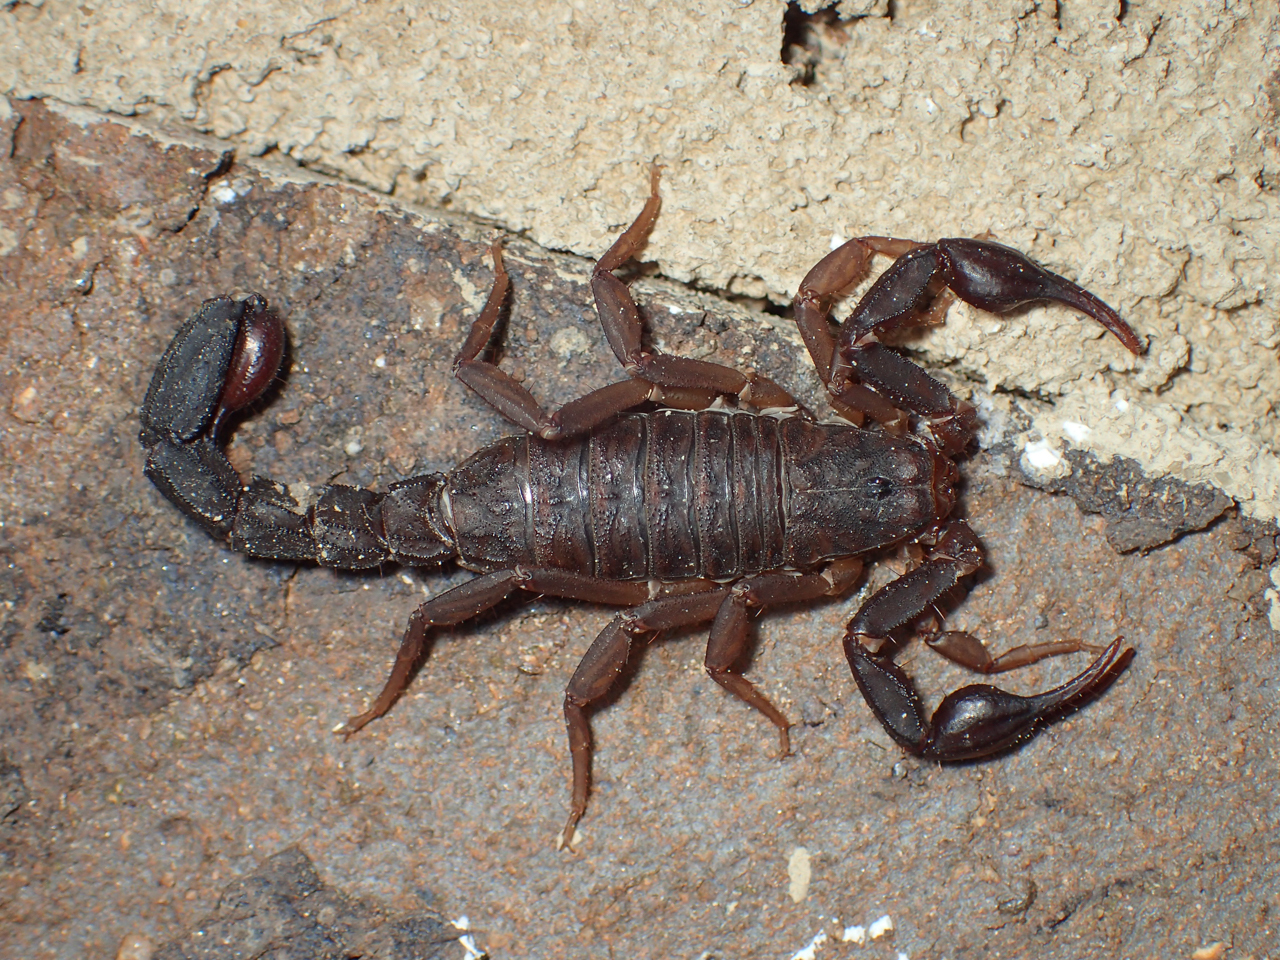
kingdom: Animalia
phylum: Arthropoda
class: Arachnida
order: Scorpiones
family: Vaejovidae
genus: Vaejovis
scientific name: Vaejovis carolinianus
